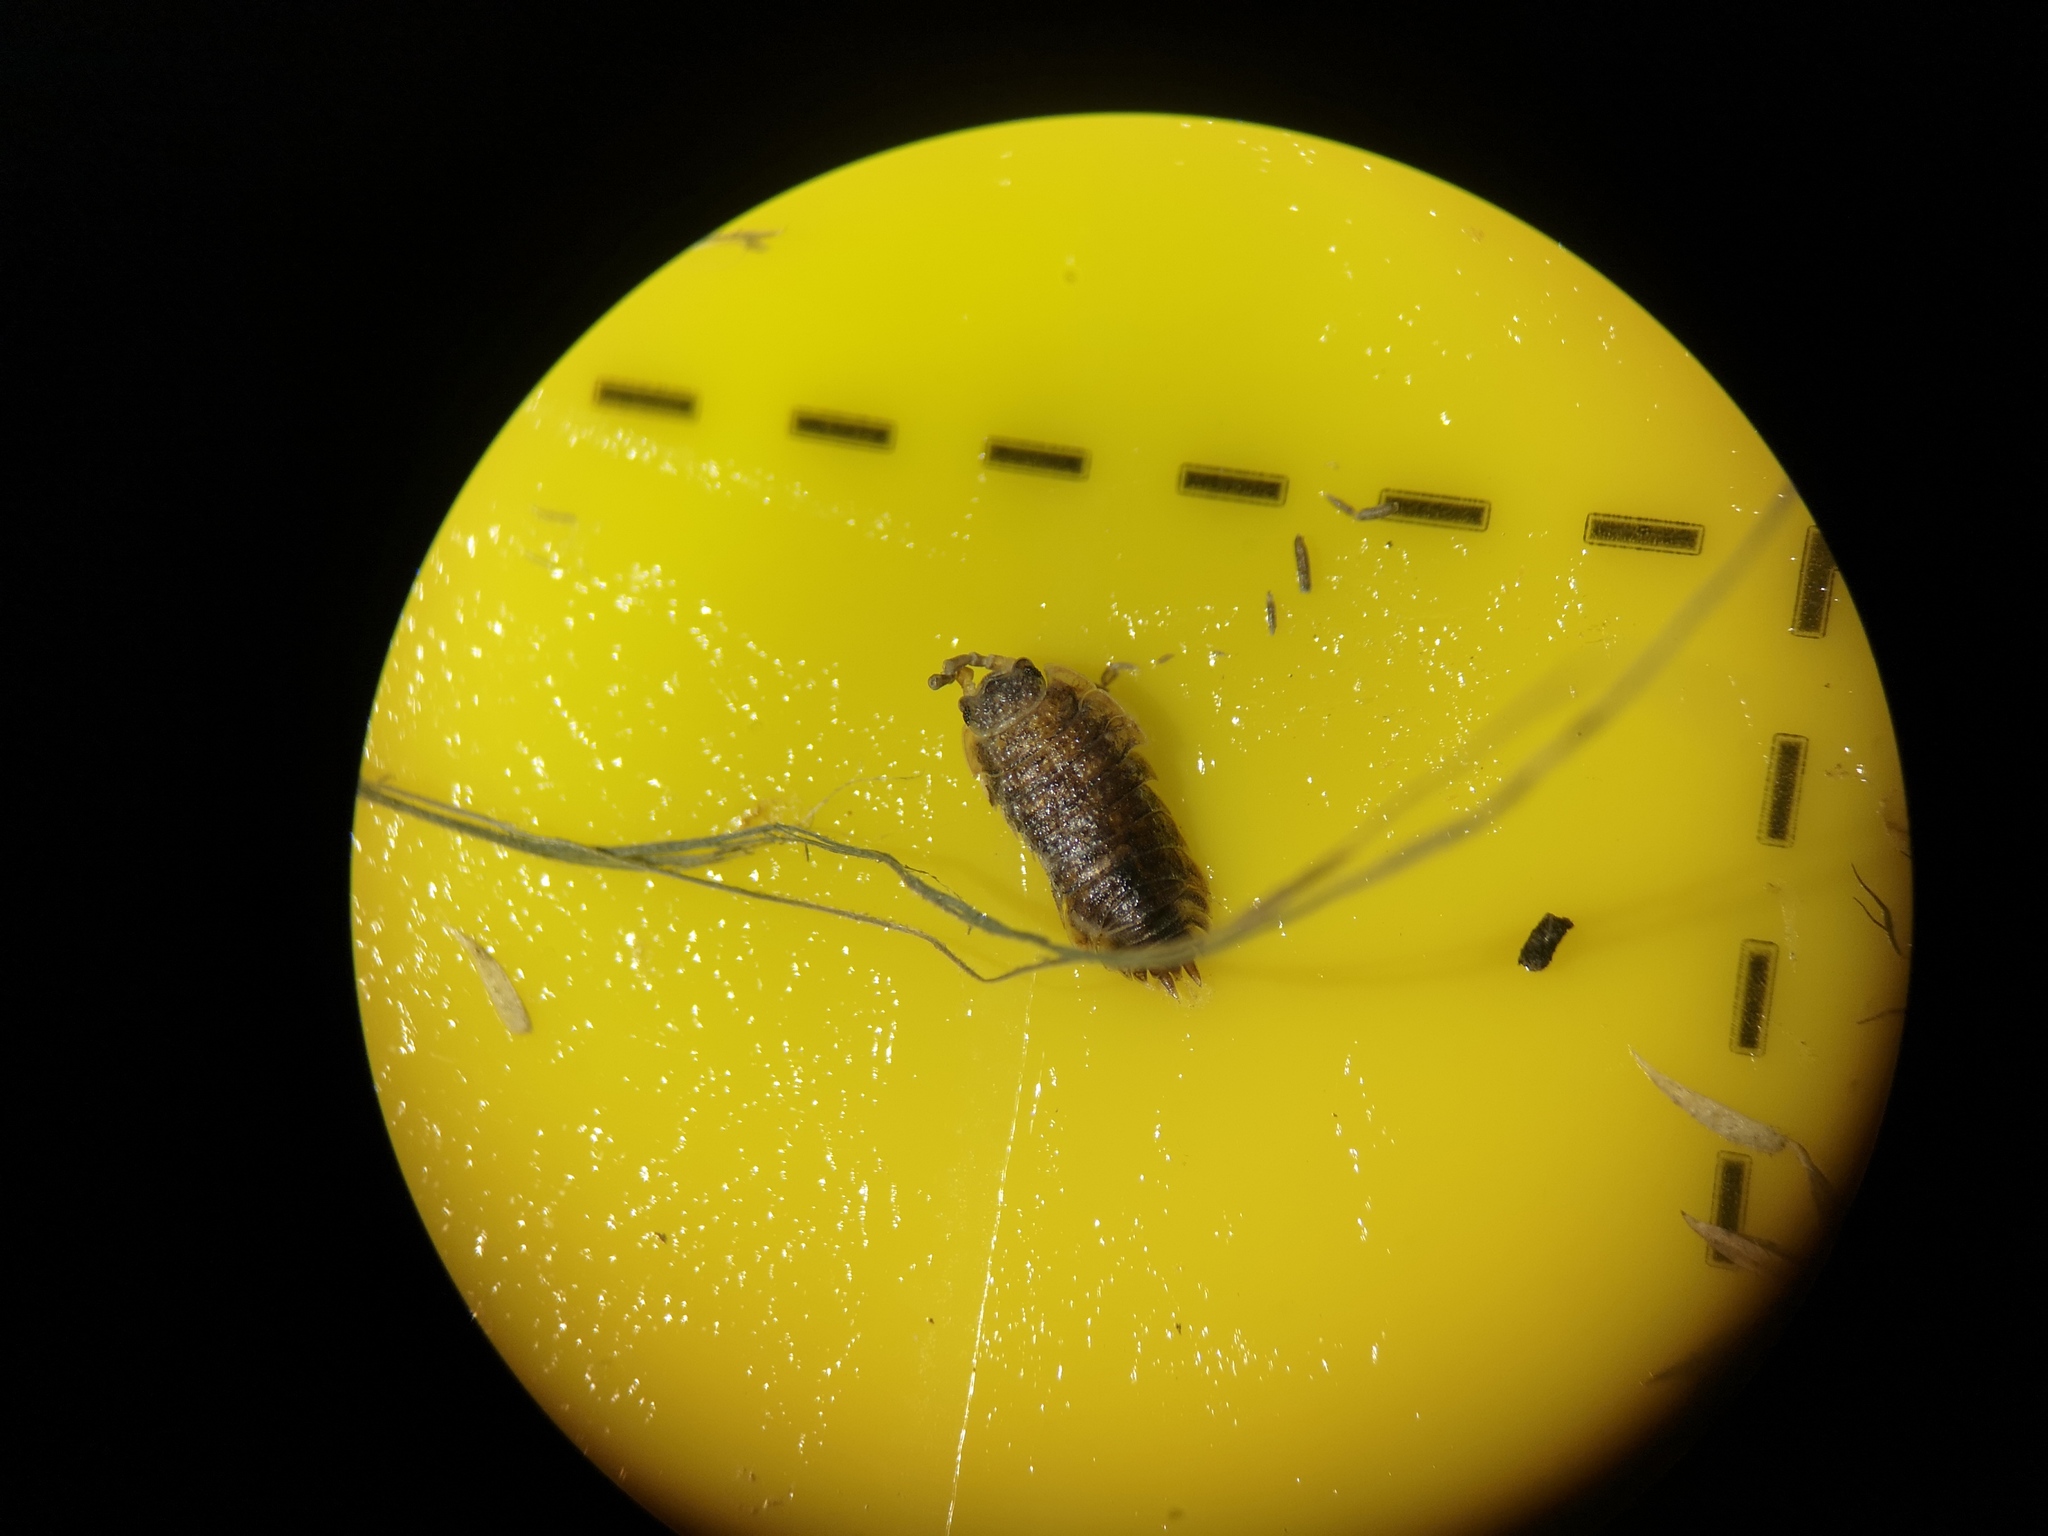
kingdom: Animalia
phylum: Arthropoda
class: Malacostraca
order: Isopoda
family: Porcellionidae
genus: Porcellio
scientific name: Porcellio scaber
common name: Common rough woodlouse
